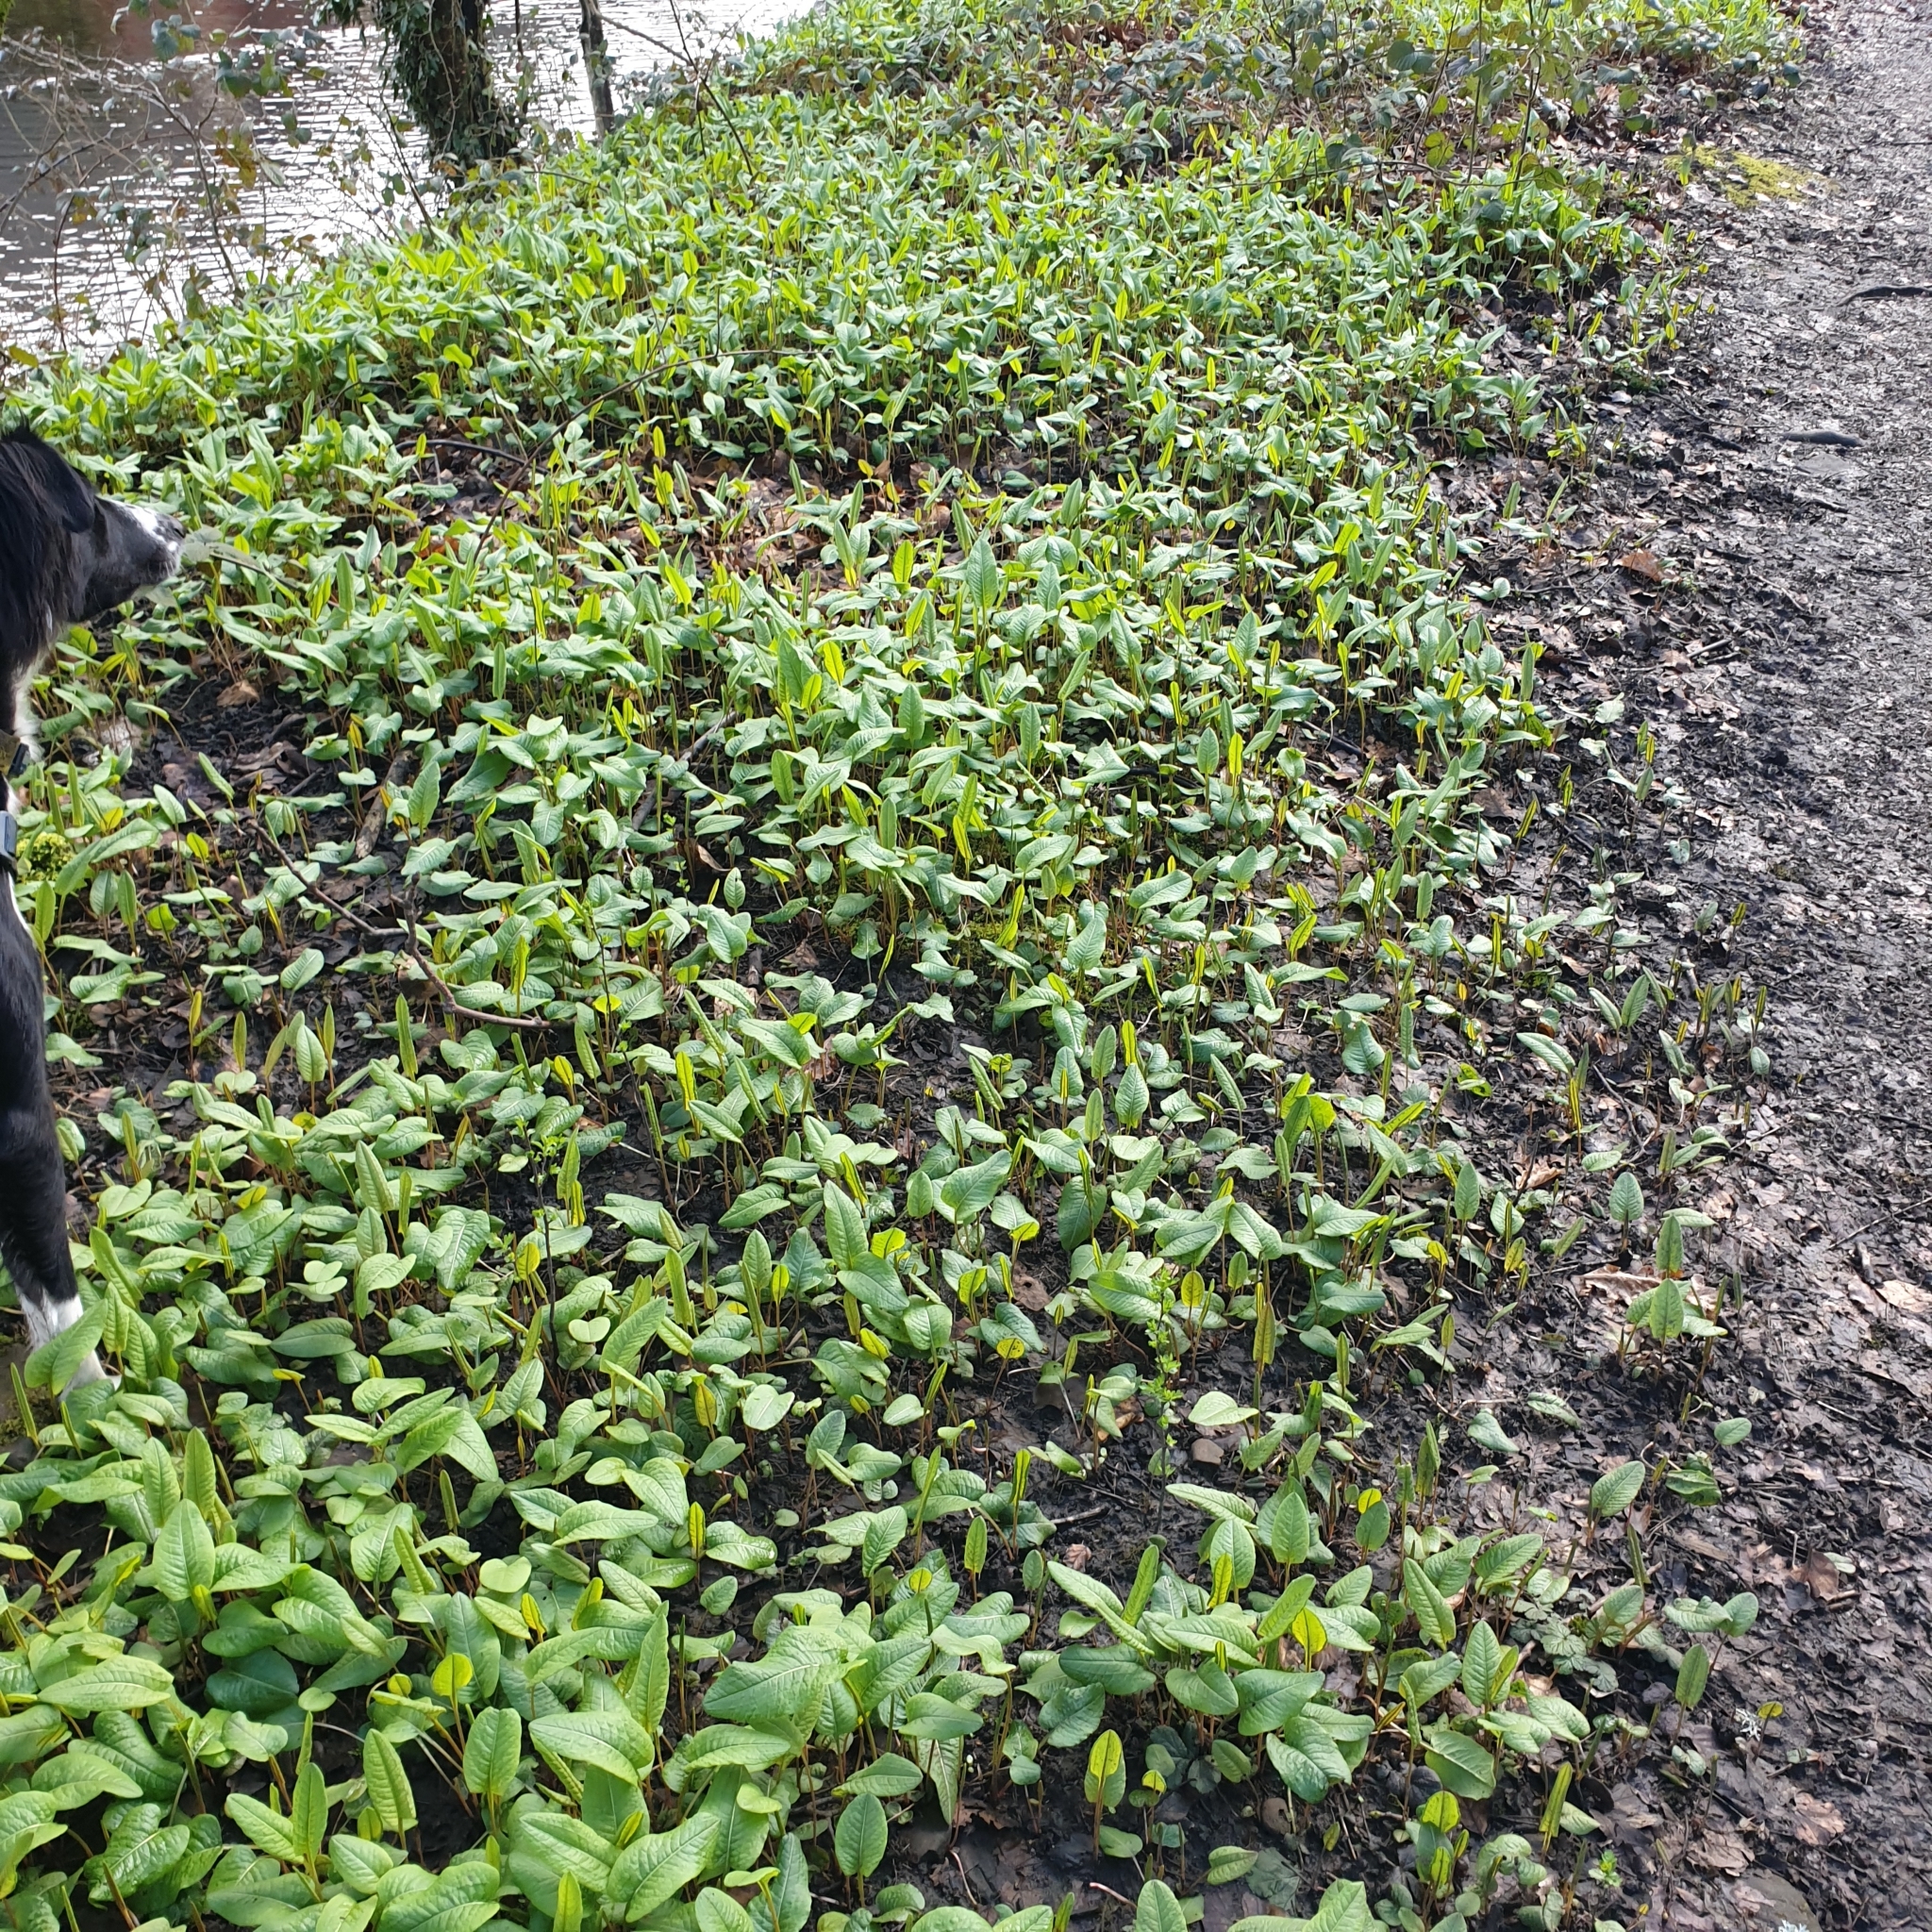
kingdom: Plantae
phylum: Tracheophyta
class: Magnoliopsida
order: Caryophyllales
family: Polygonaceae
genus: Bistorta
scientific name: Bistorta officinalis
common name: Common bistort
